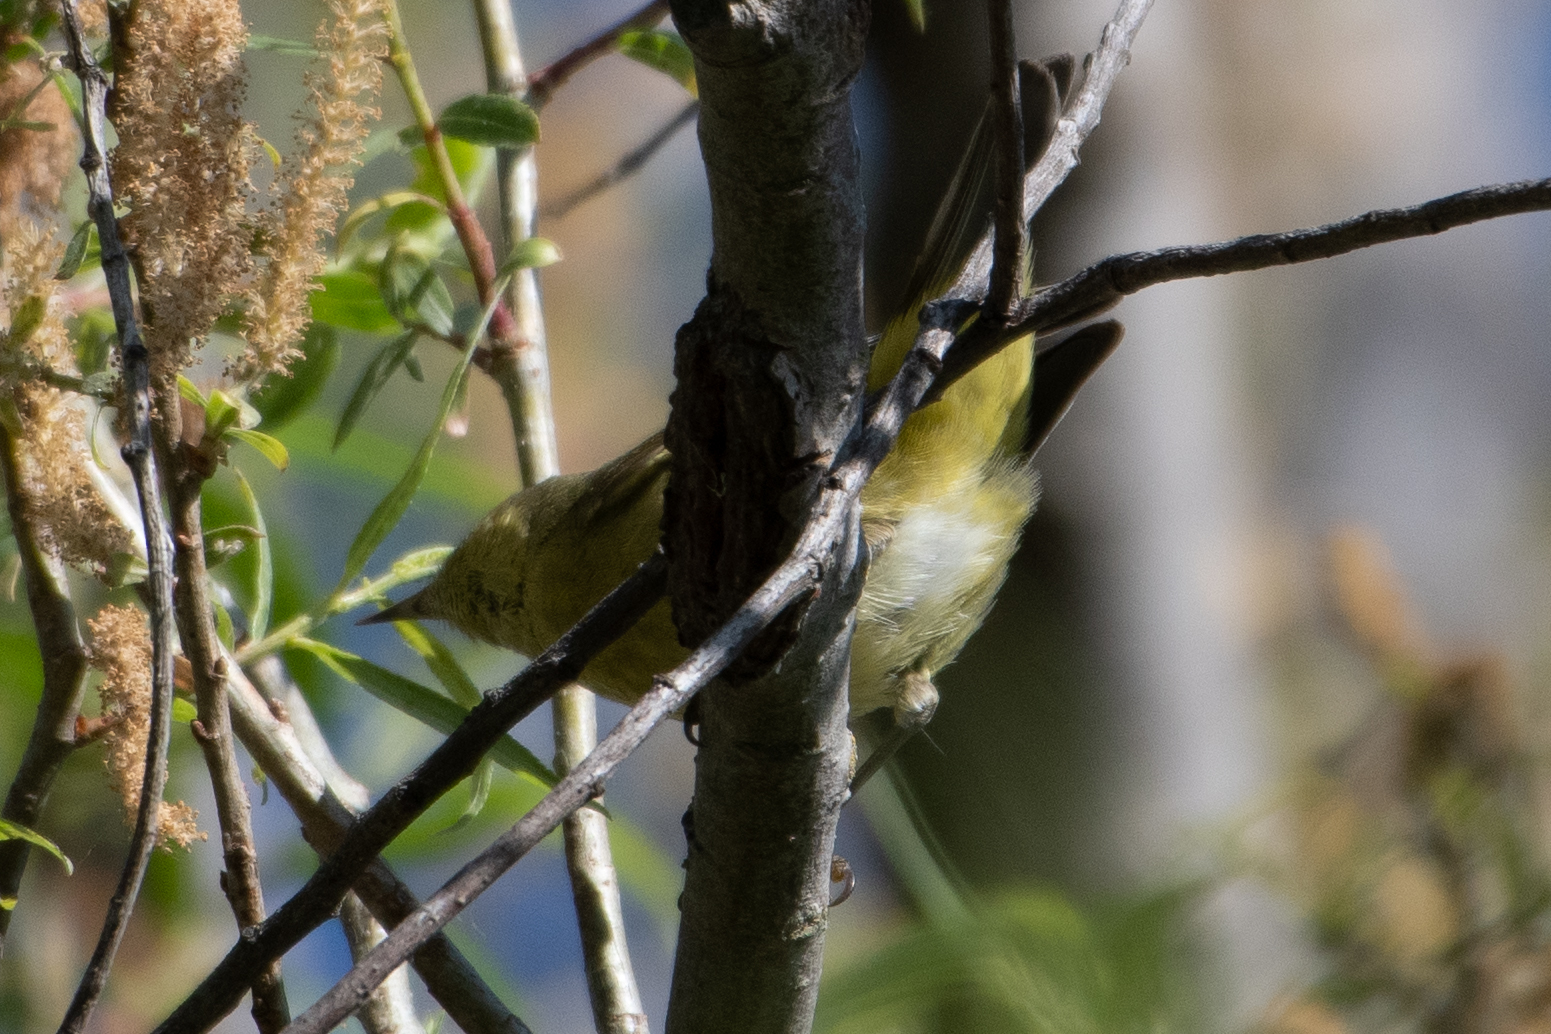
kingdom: Animalia
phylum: Chordata
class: Aves
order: Passeriformes
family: Parulidae
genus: Leiothlypis
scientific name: Leiothlypis celata
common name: Orange-crowned warbler
